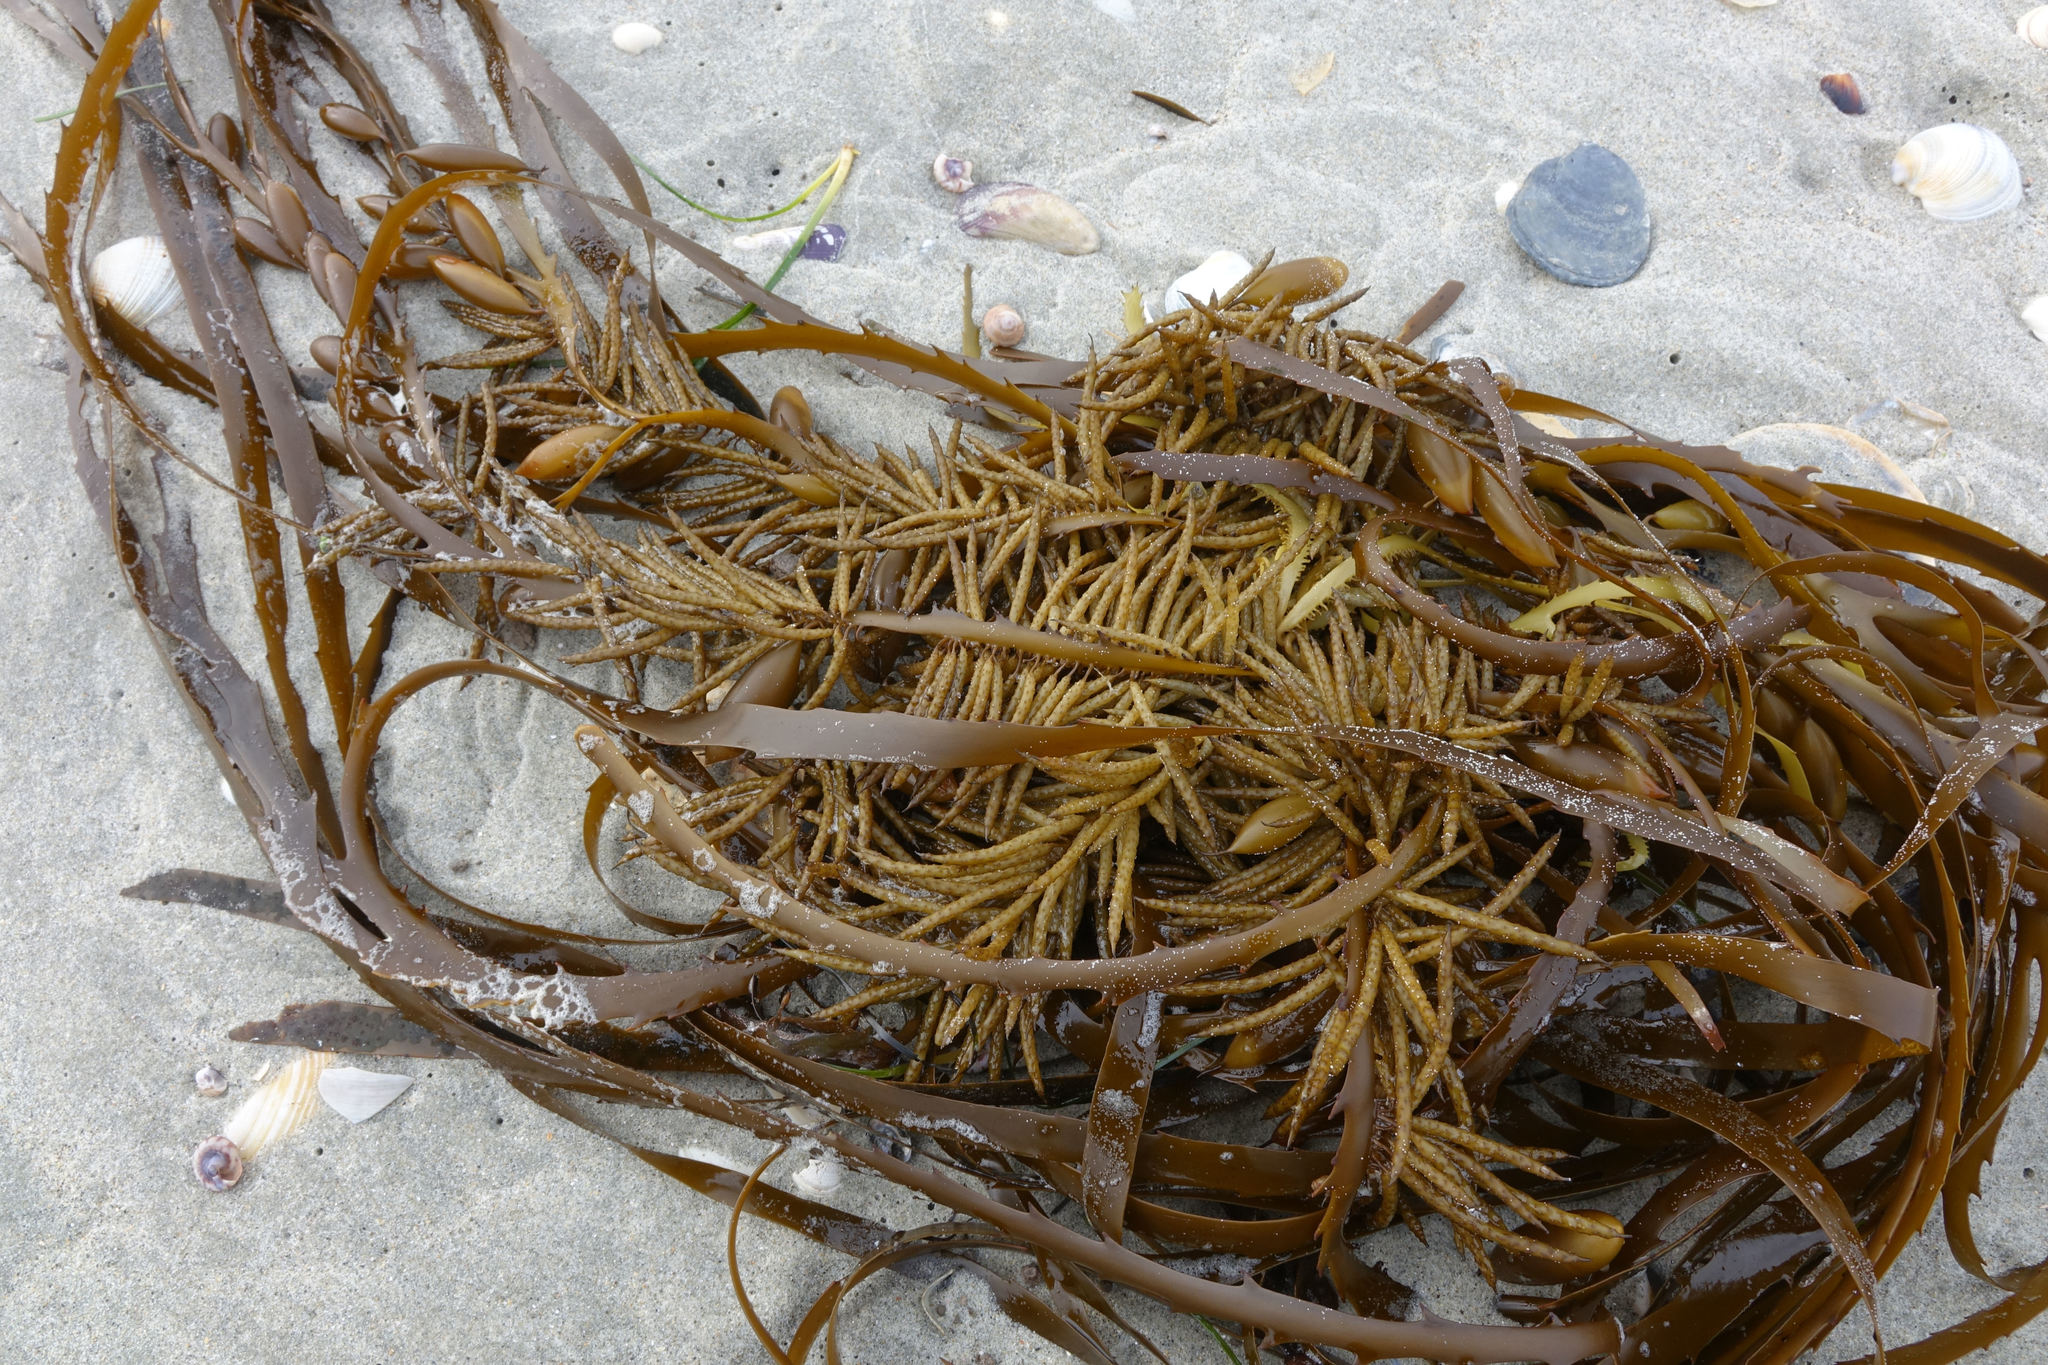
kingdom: Chromista
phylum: Ochrophyta
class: Phaeophyceae
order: Fucales
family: Seirococcaceae
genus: Marginariella
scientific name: Marginariella boryana
